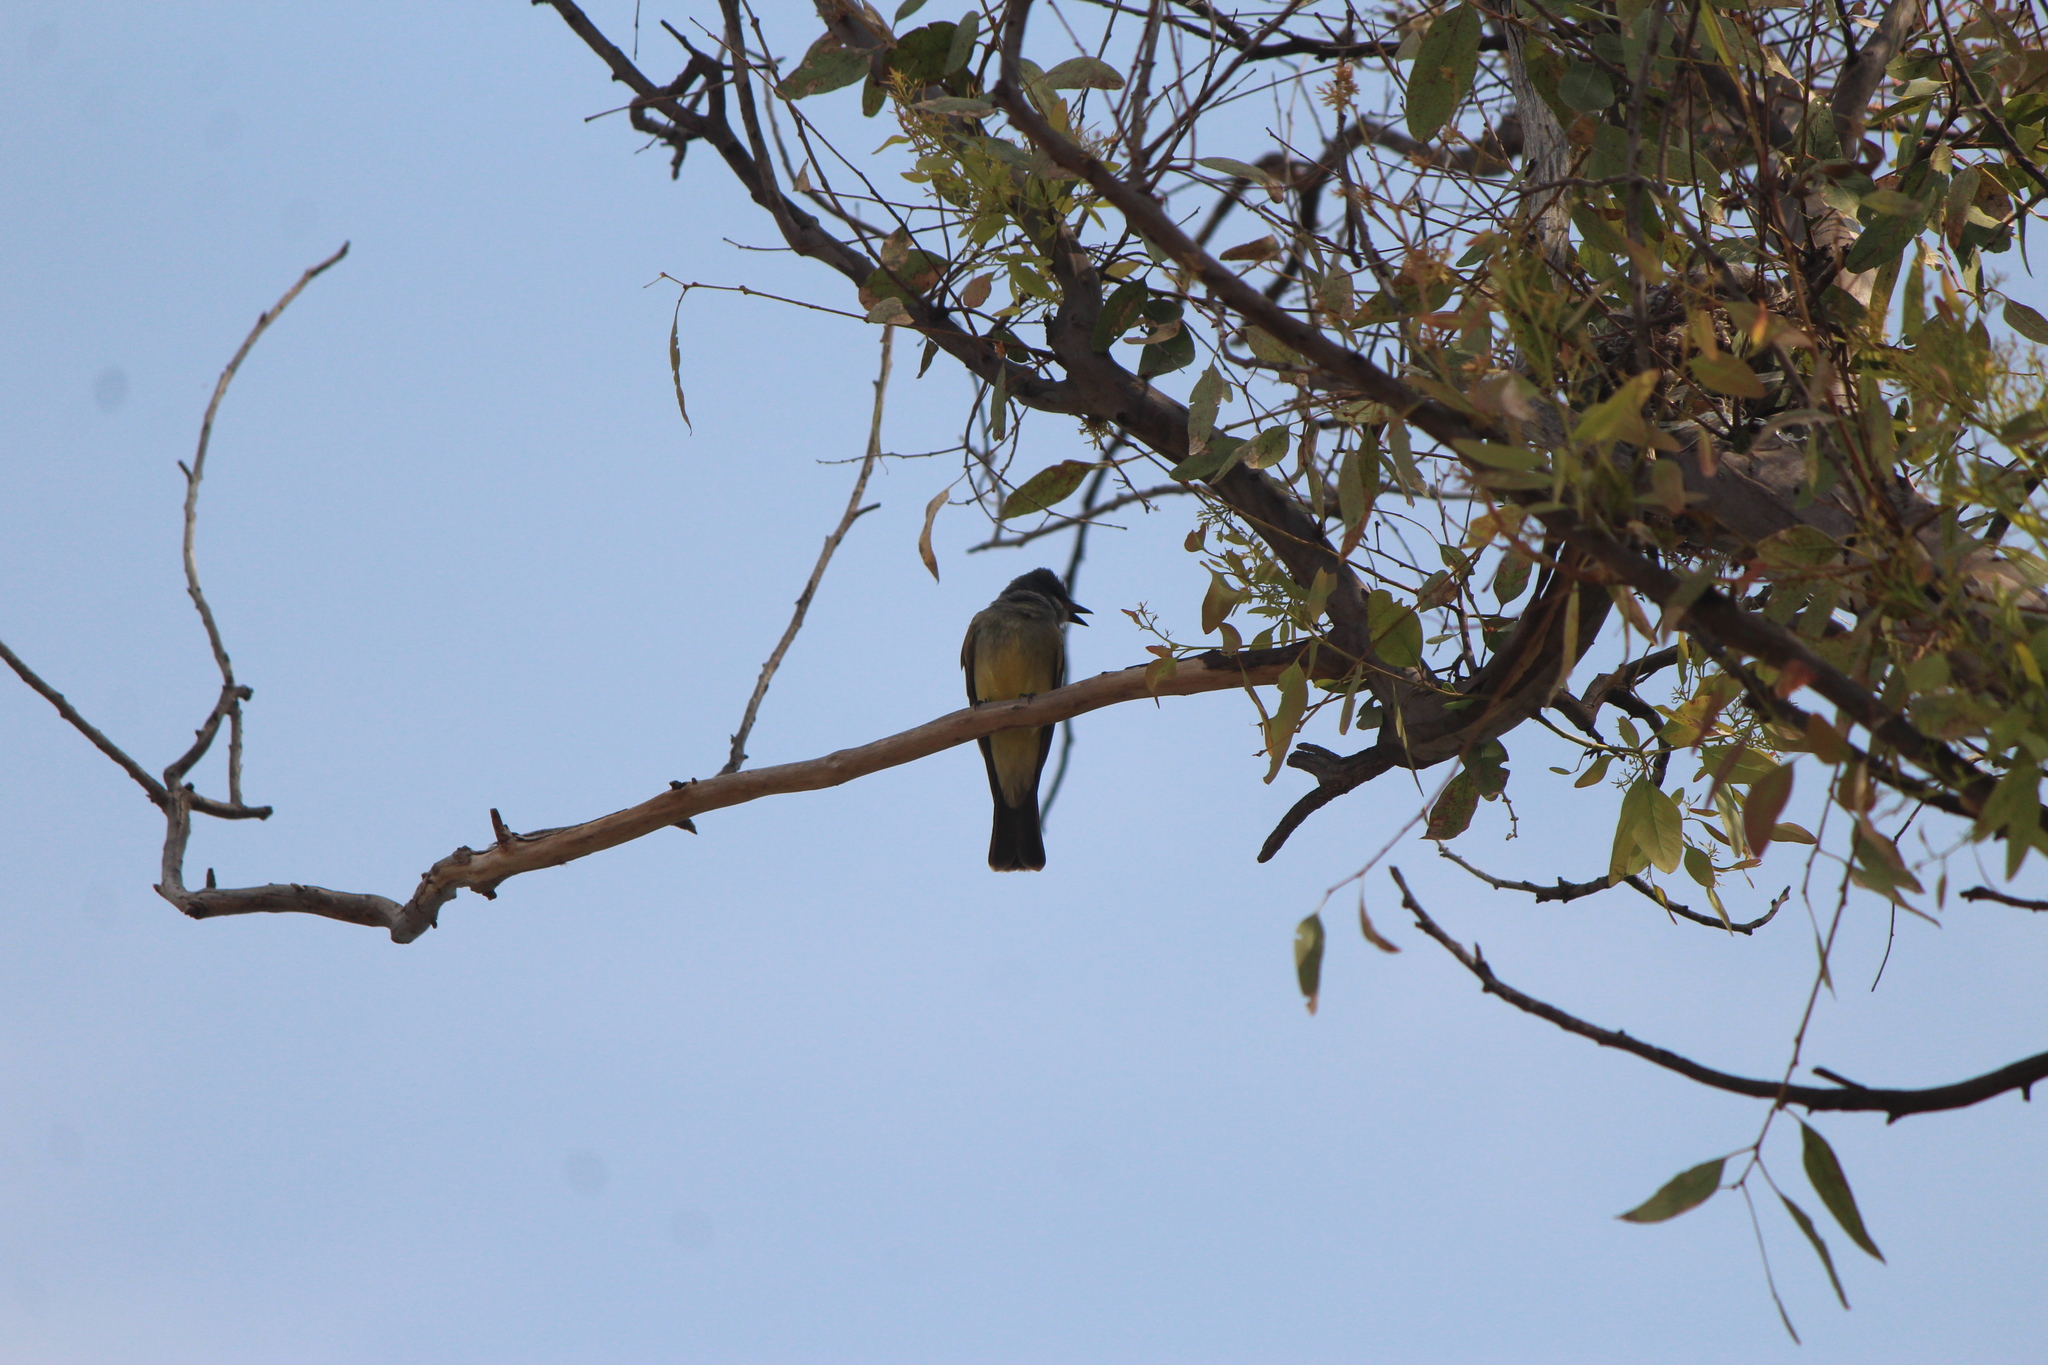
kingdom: Animalia
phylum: Chordata
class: Aves
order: Passeriformes
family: Tyrannidae
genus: Tyrannus
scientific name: Tyrannus vociferans
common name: Cassin's kingbird
